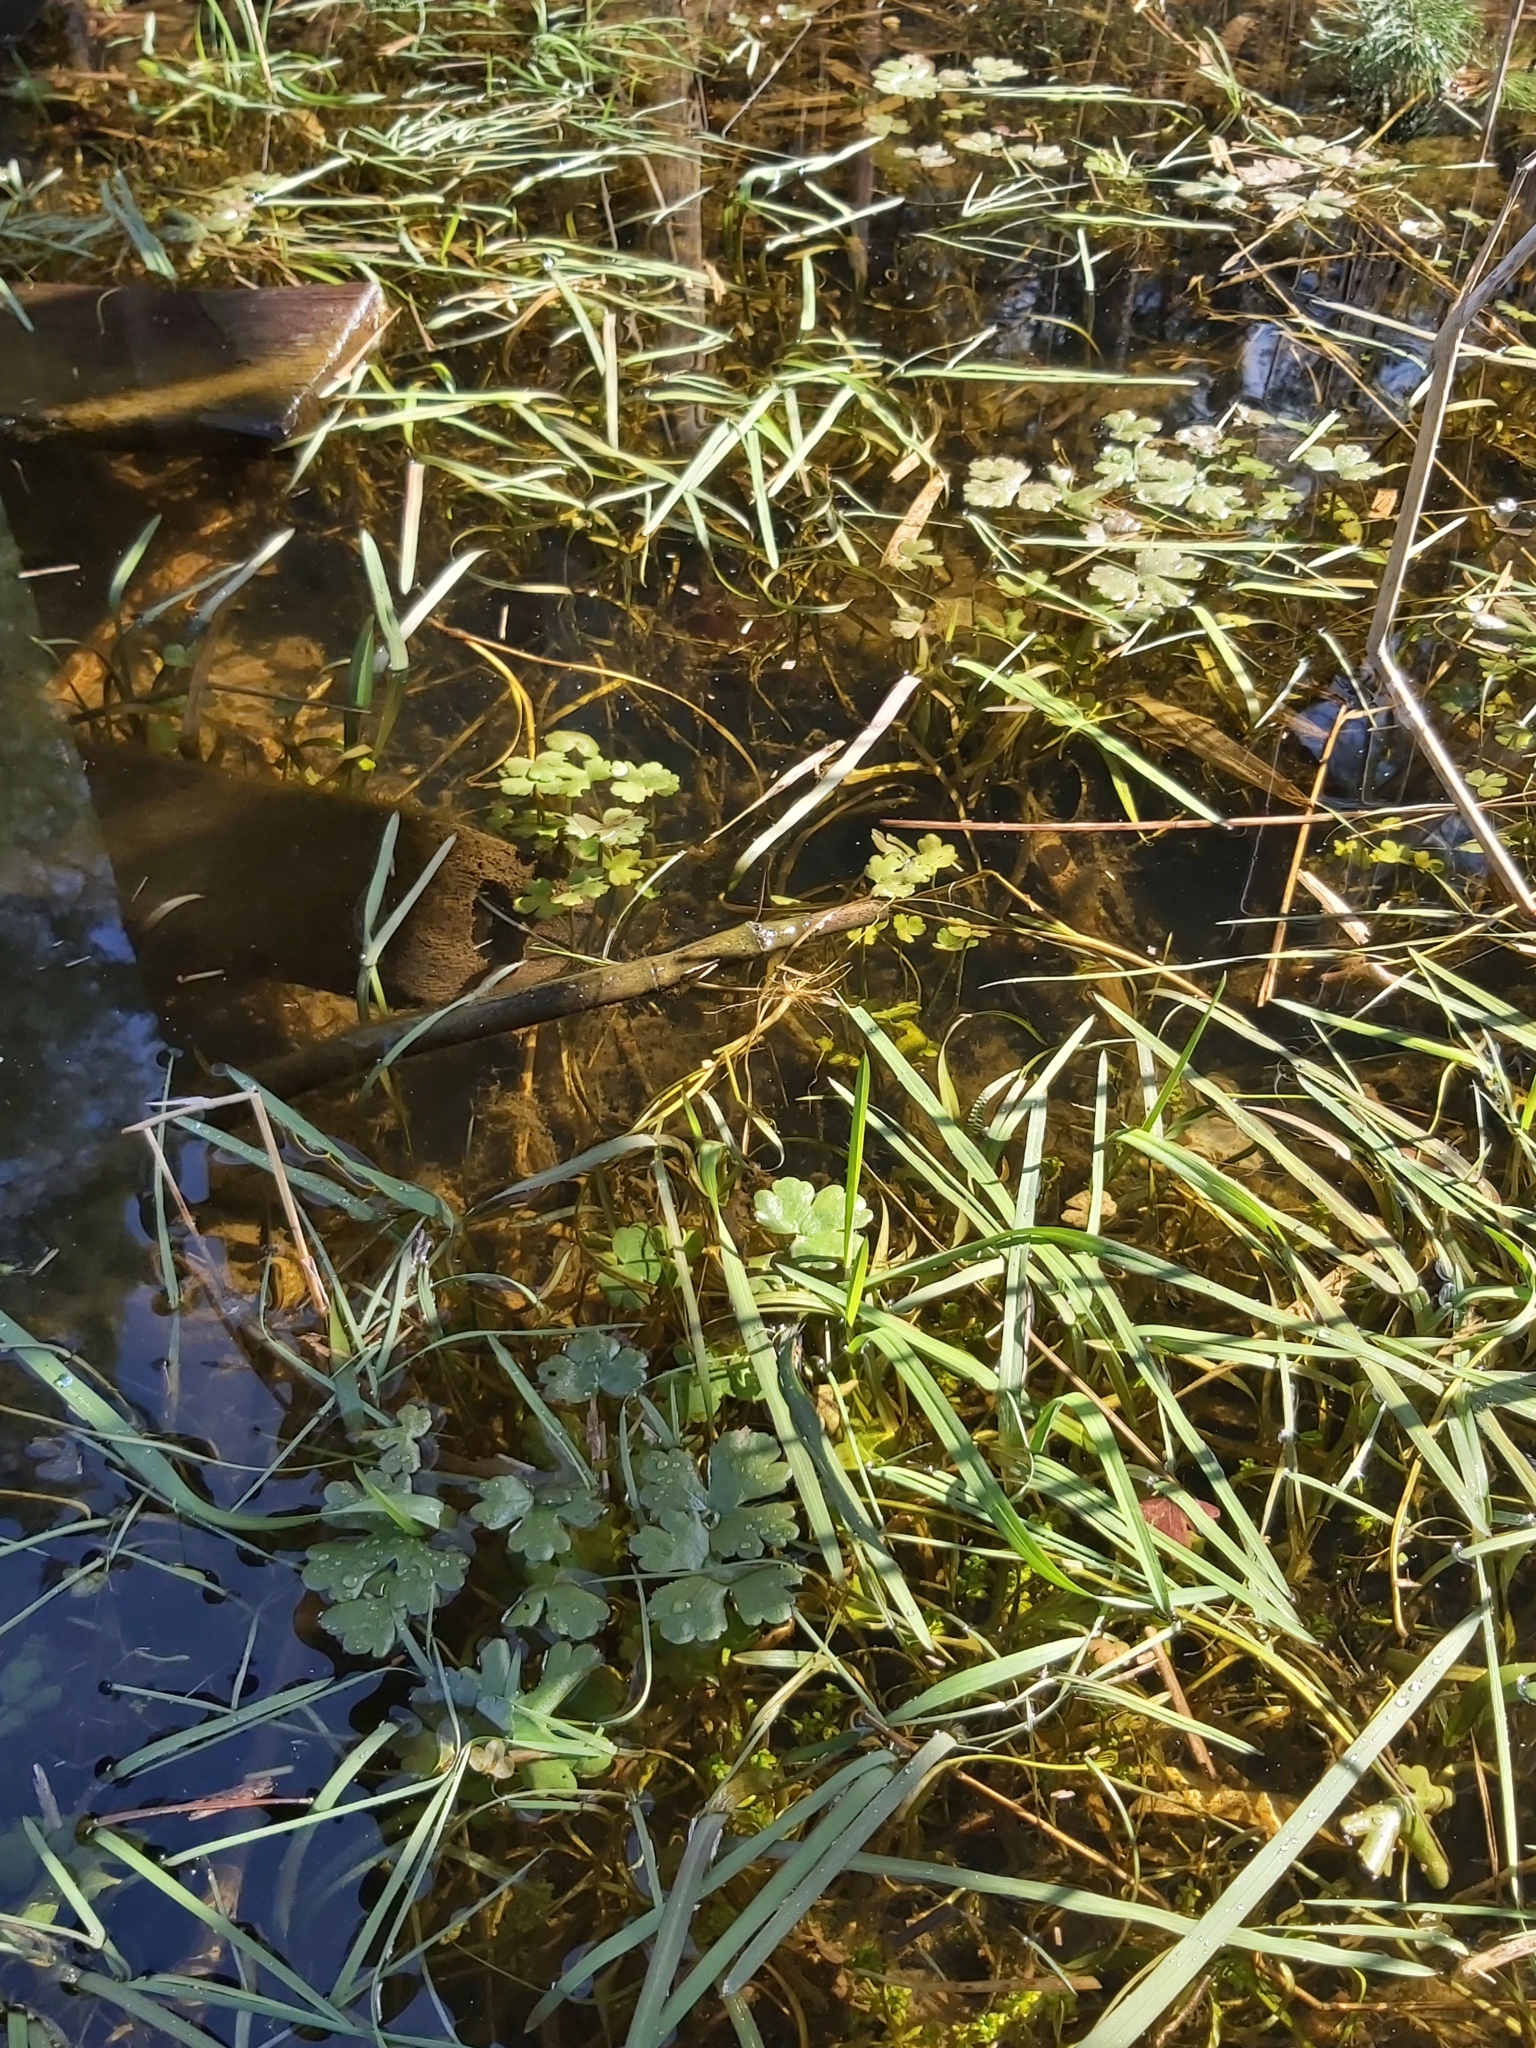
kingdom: Plantae
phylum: Tracheophyta
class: Magnoliopsida
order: Ranunculales
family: Ranunculaceae
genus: Ranunculus
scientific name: Ranunculus sceleratus
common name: Celery-leaved buttercup
